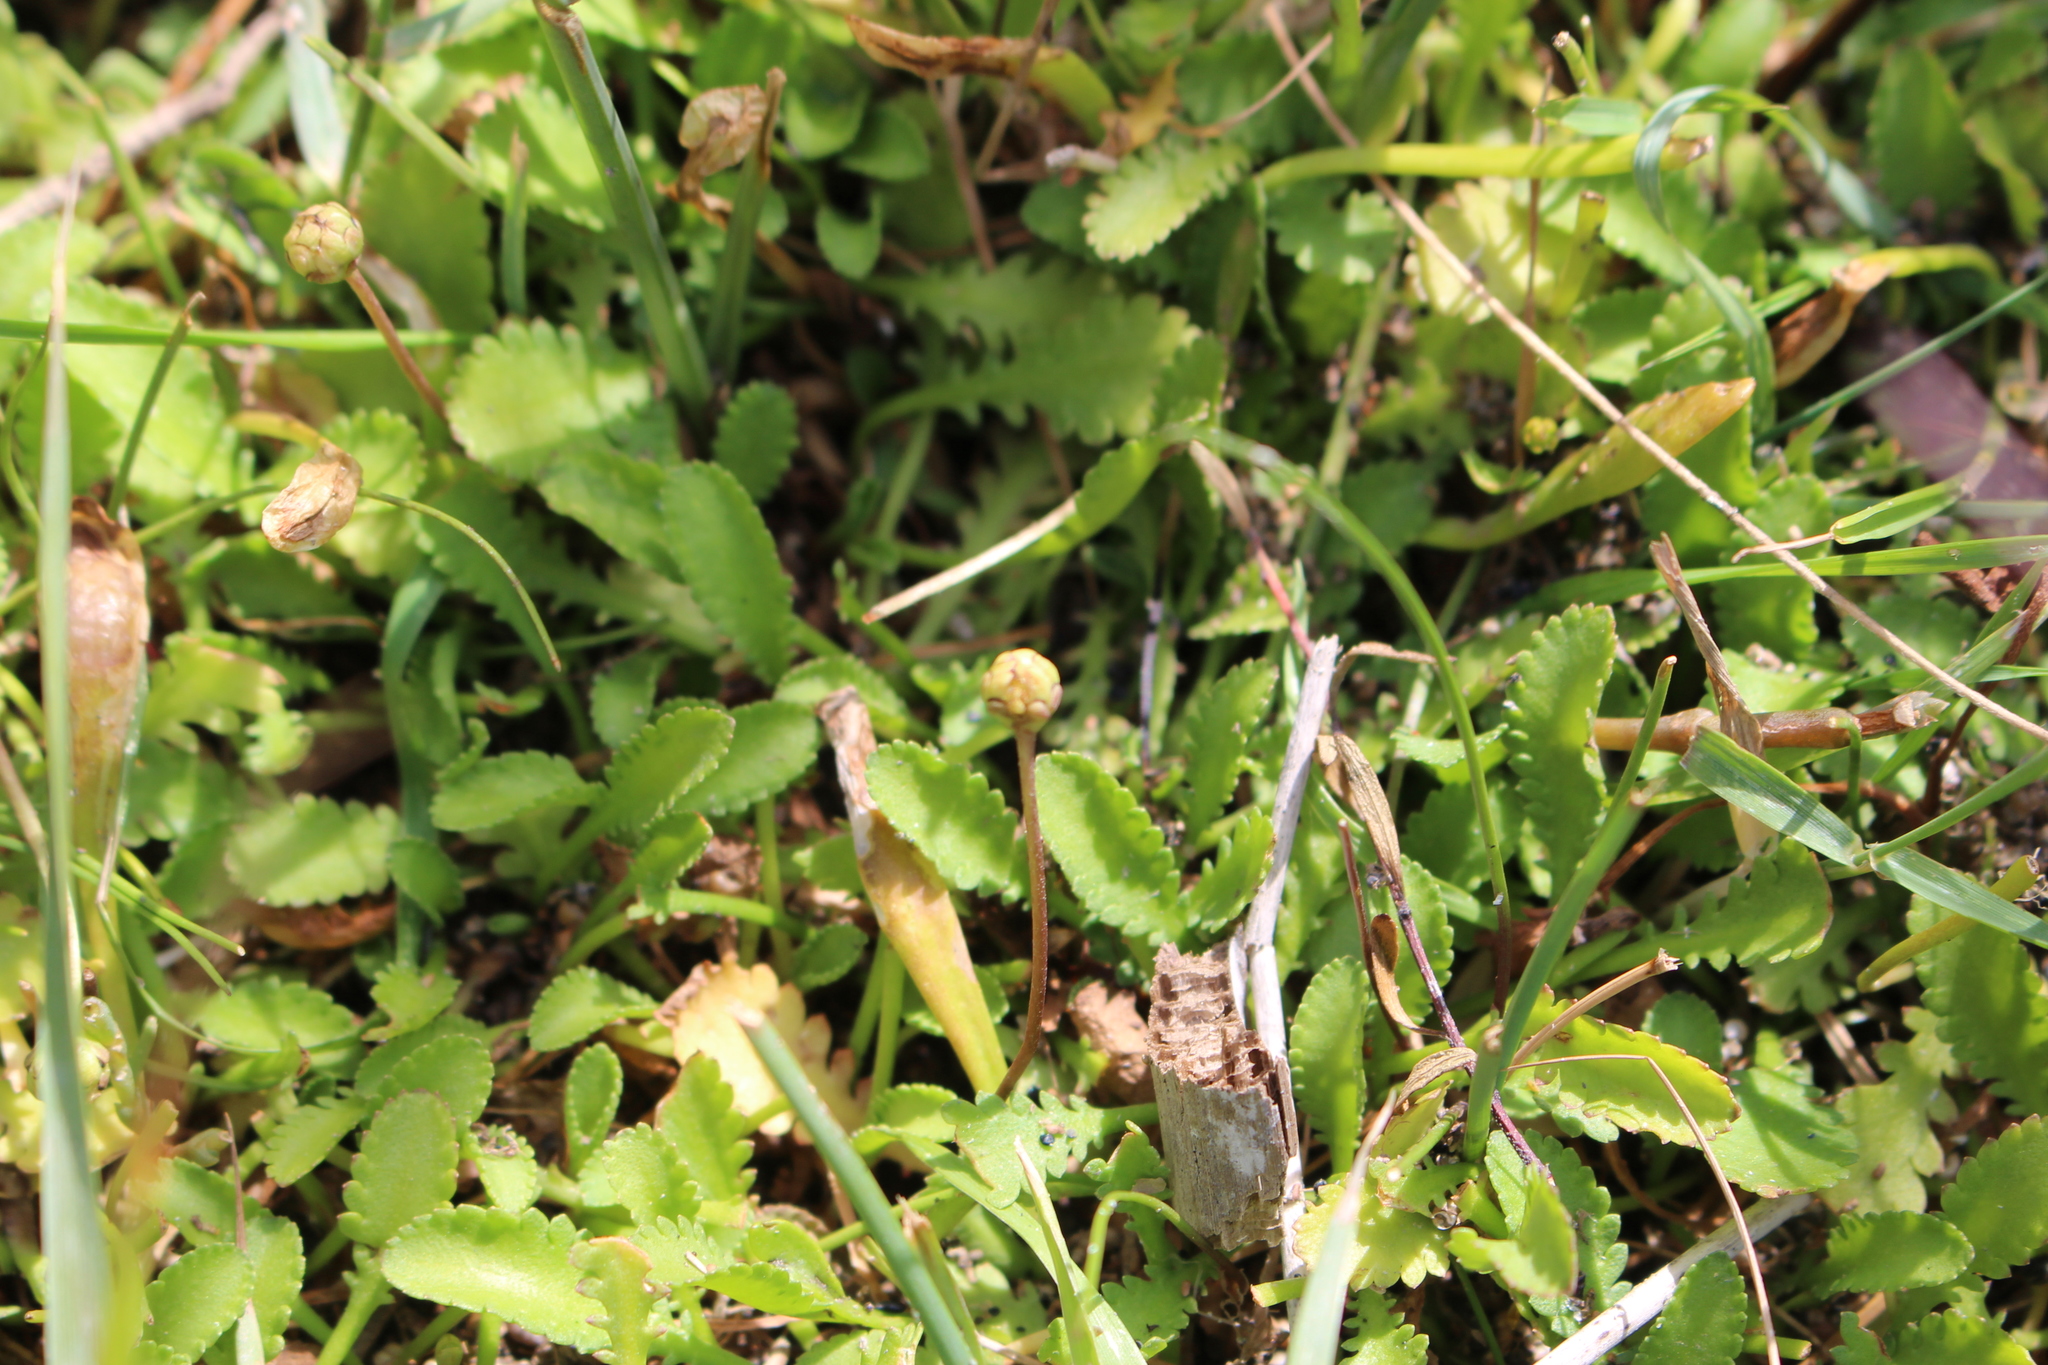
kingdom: Plantae
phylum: Tracheophyta
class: Magnoliopsida
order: Asterales
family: Asteraceae
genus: Leptinella
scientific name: Leptinella dioica
